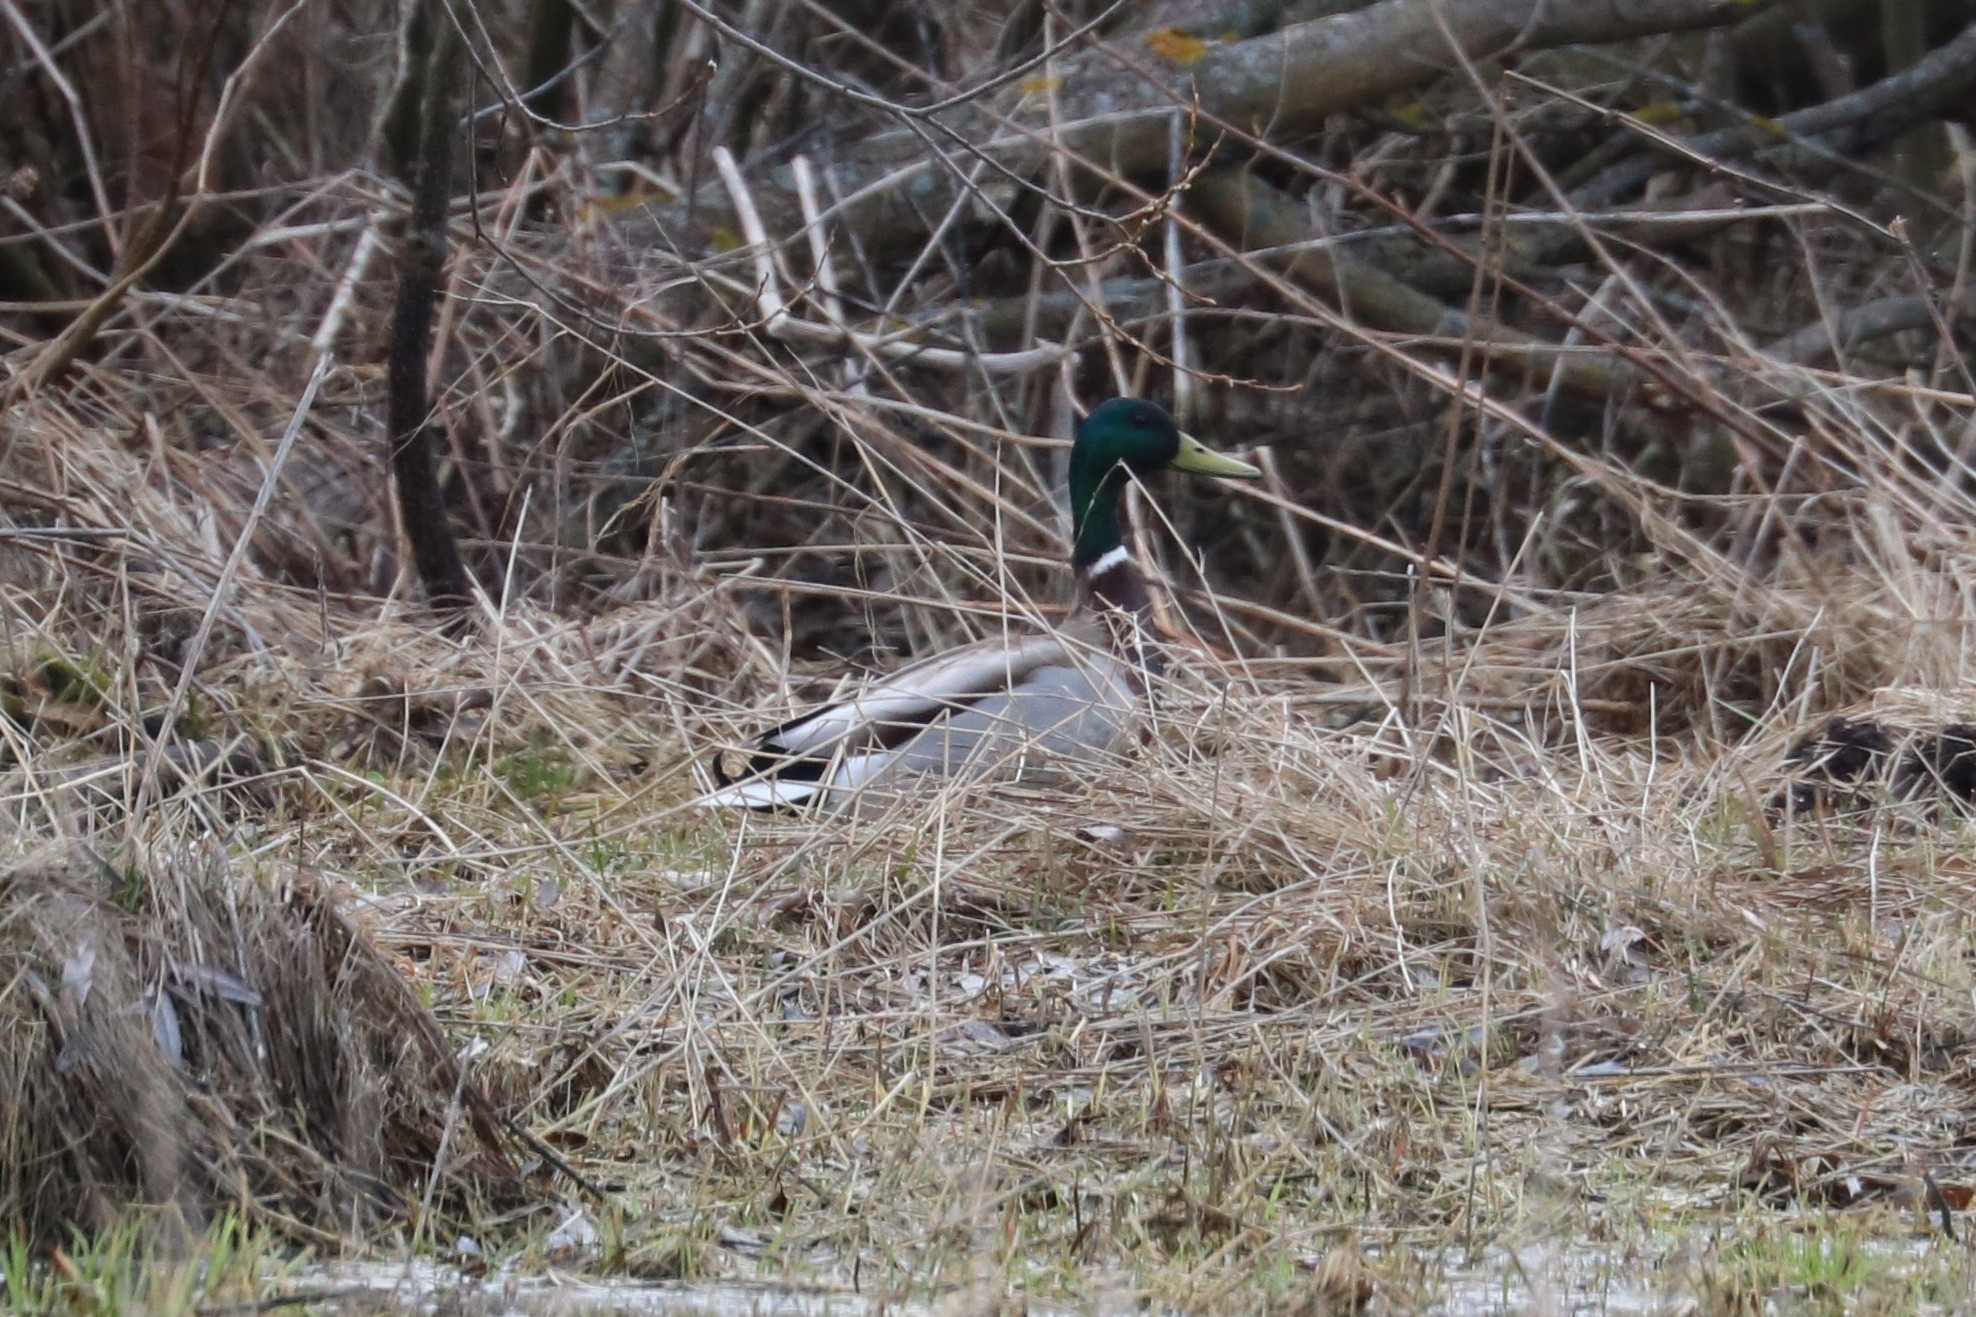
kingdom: Animalia
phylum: Chordata
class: Aves
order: Anseriformes
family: Anatidae
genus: Anas
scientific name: Anas platyrhynchos
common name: Mallard
